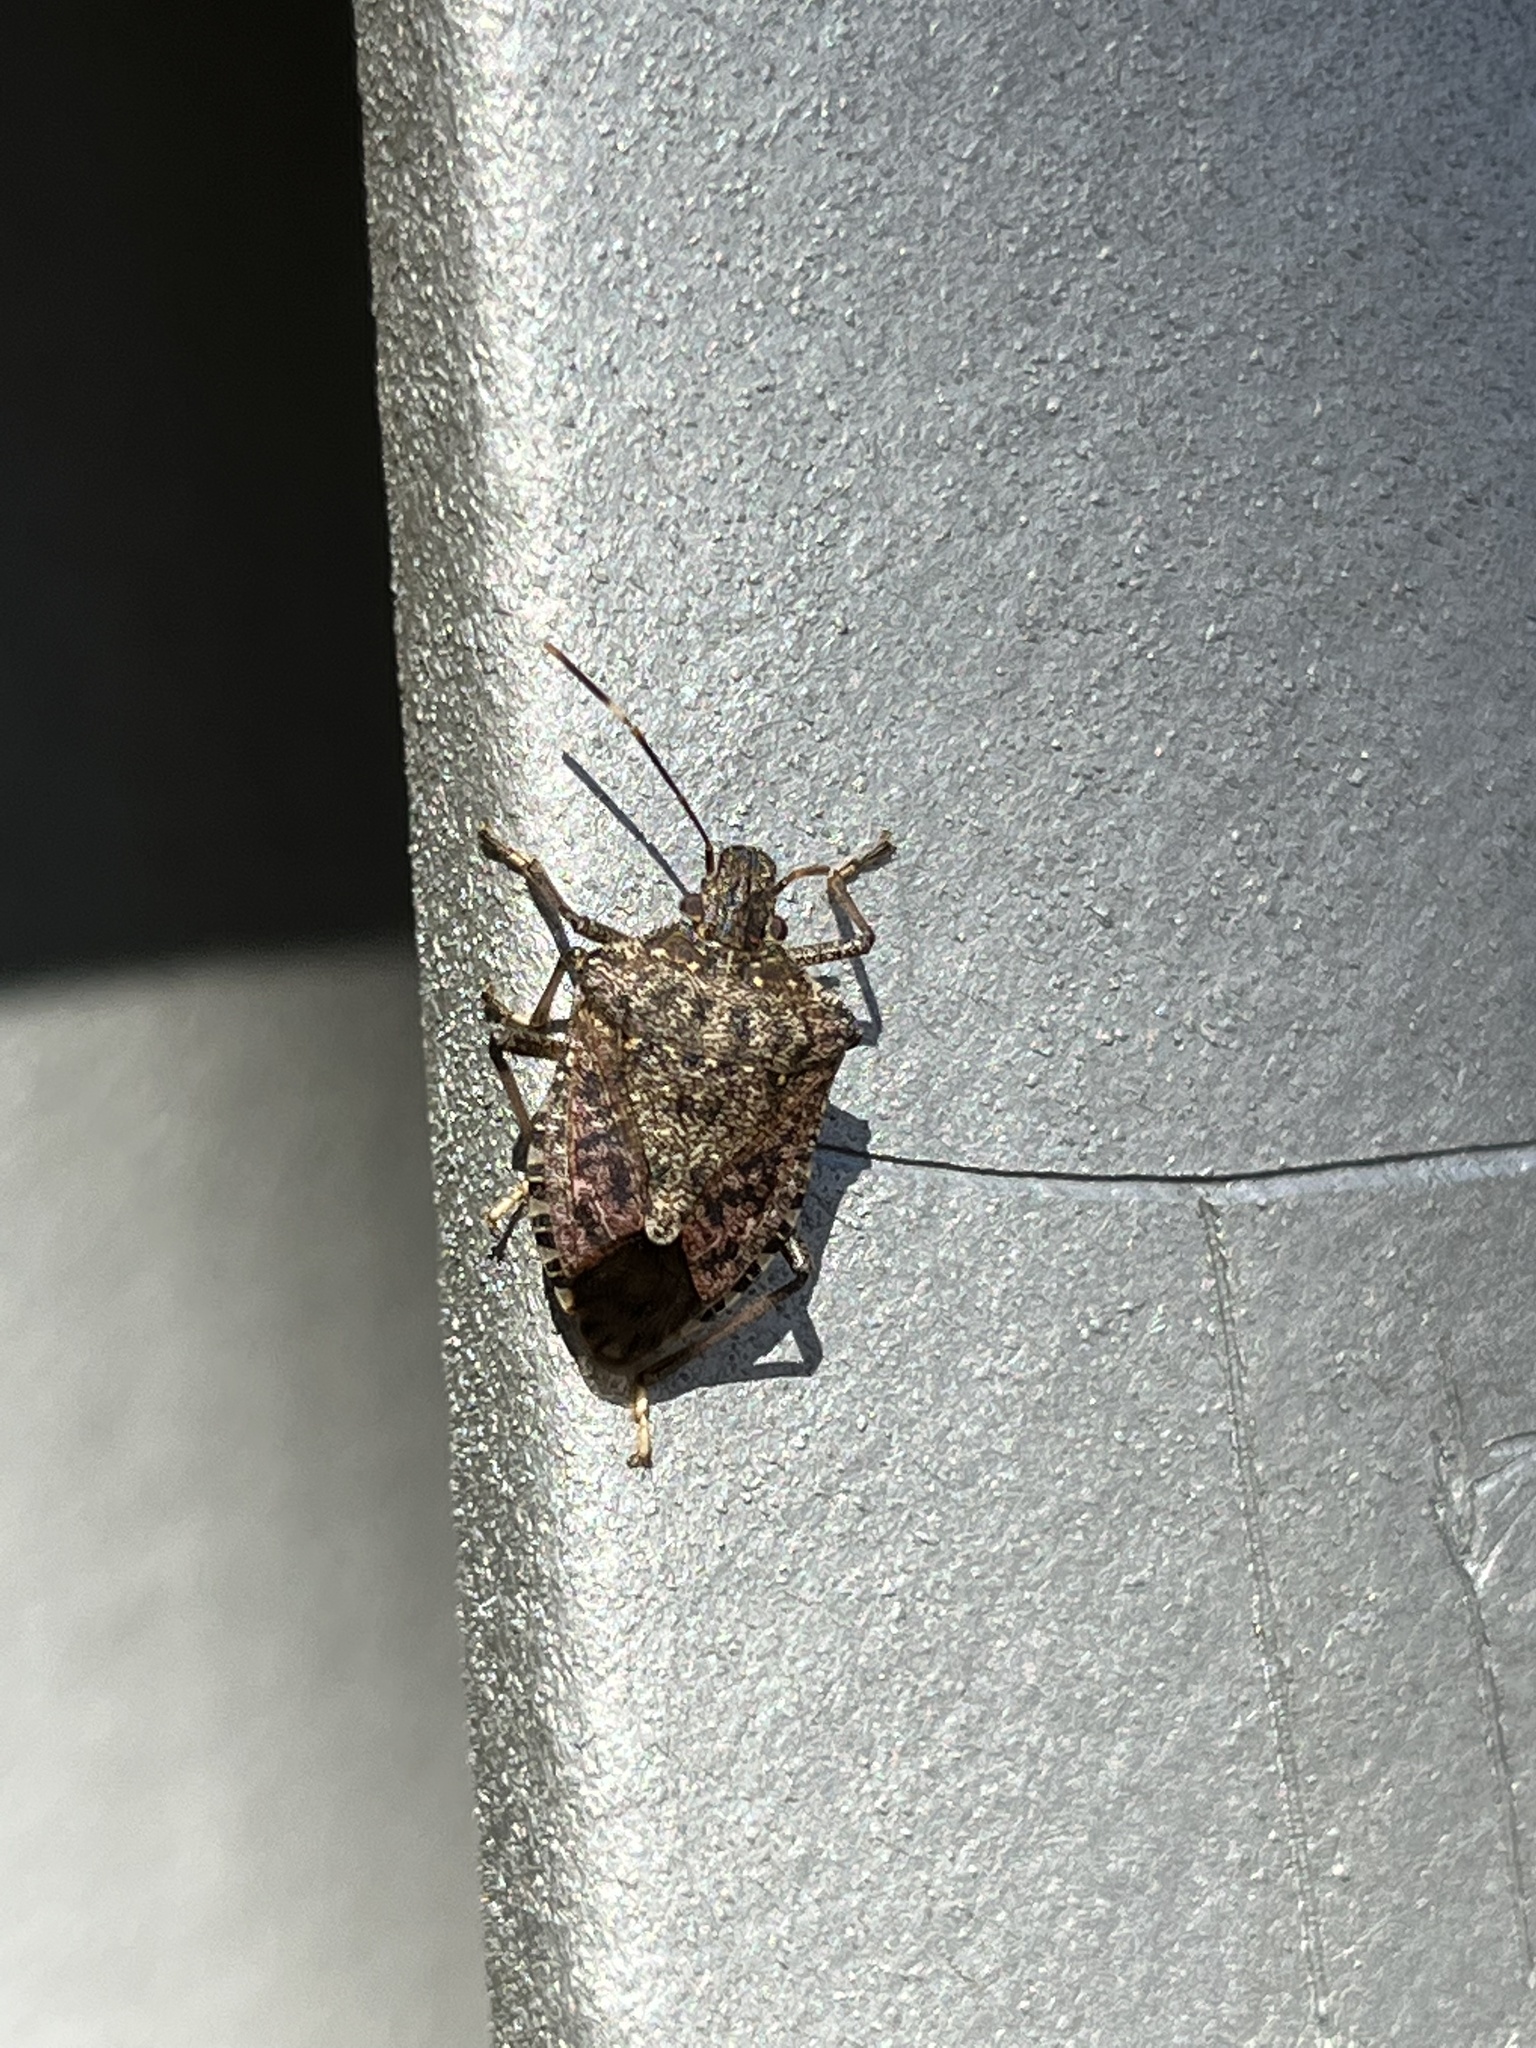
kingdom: Animalia
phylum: Arthropoda
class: Insecta
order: Hemiptera
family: Pentatomidae
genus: Halyomorpha
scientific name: Halyomorpha halys
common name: Brown marmorated stink bug
